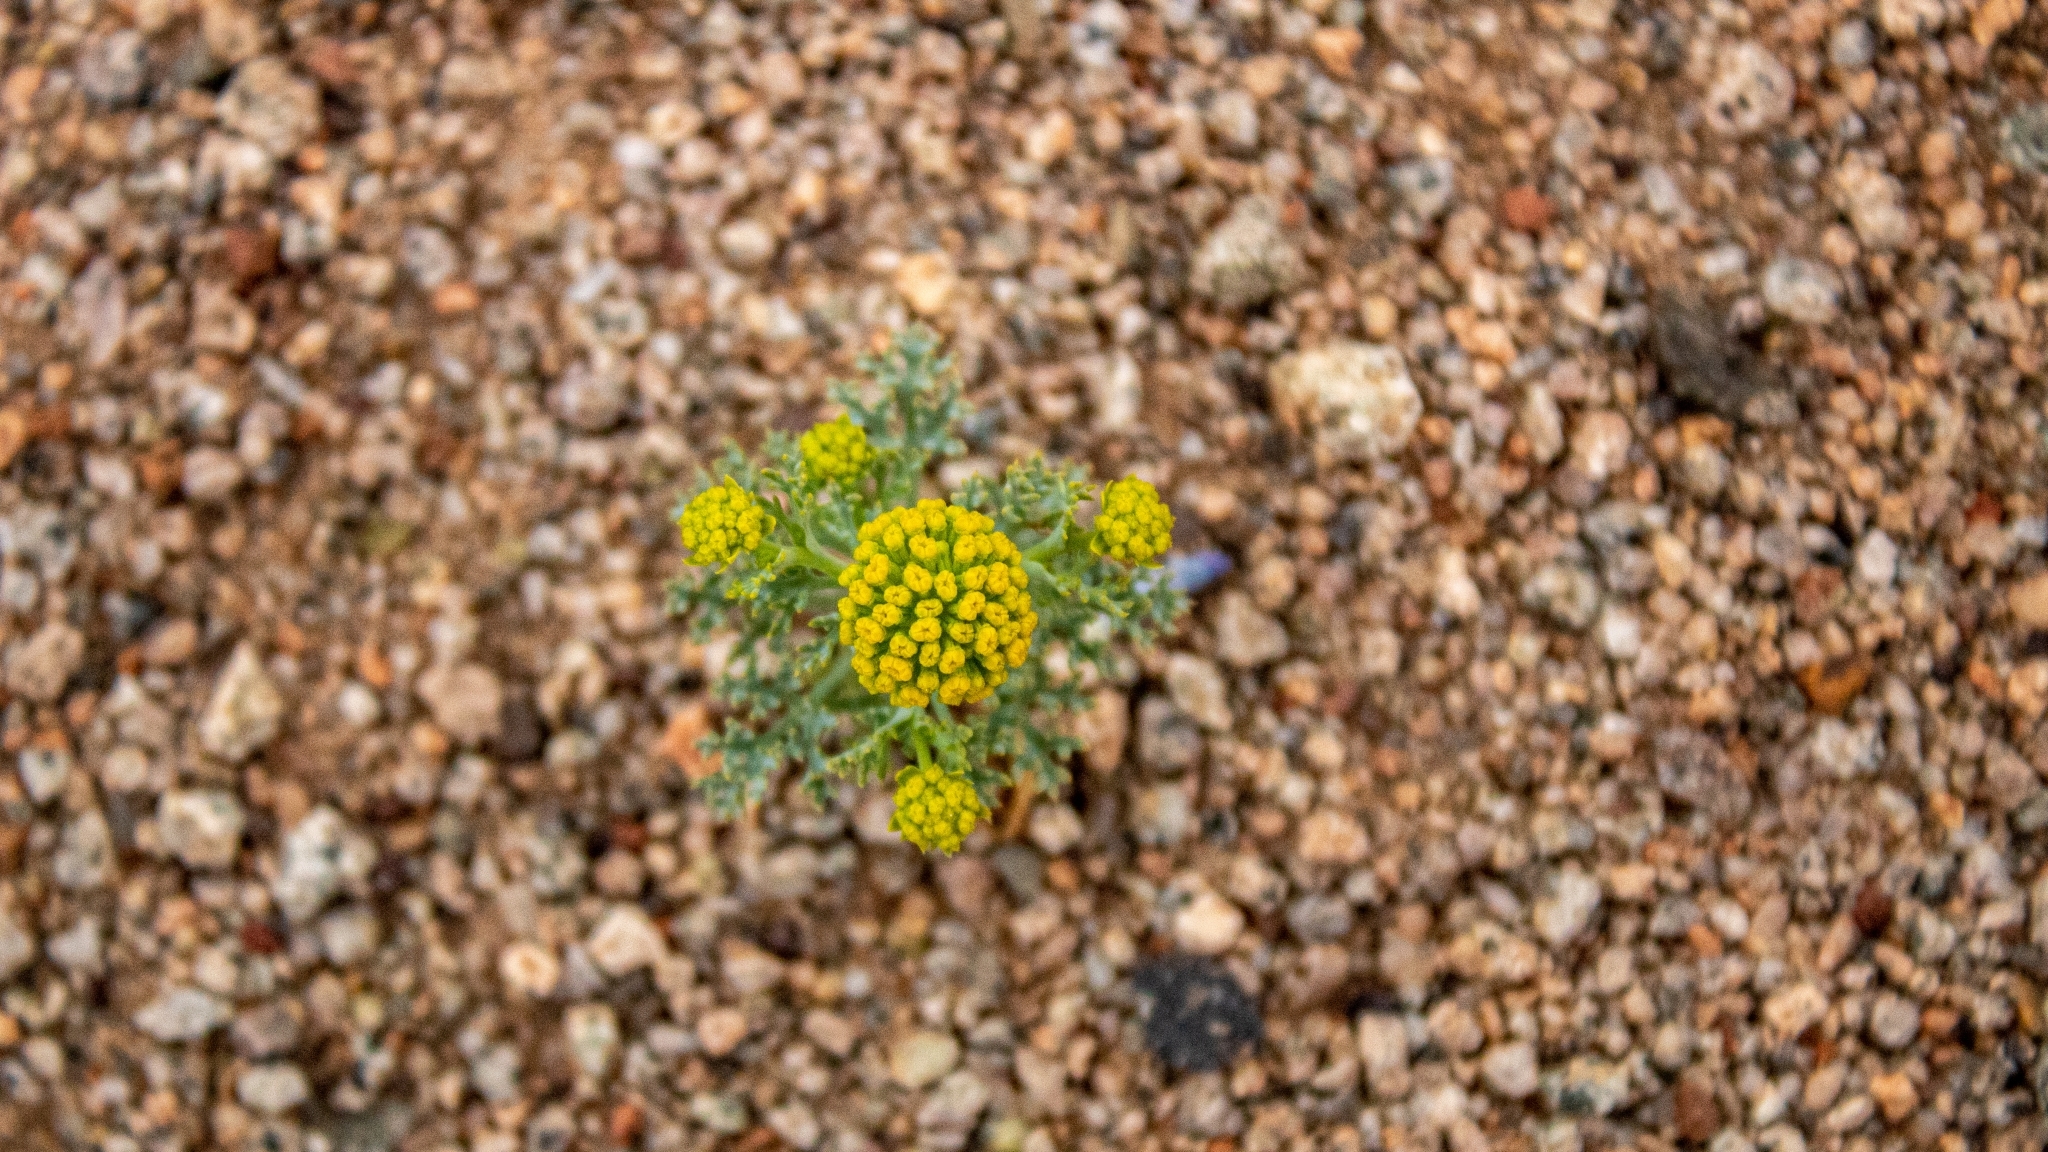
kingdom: Plantae
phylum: Tracheophyta
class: Magnoliopsida
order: Apiales
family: Apiaceae
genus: Asteriscium
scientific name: Asteriscium closii
